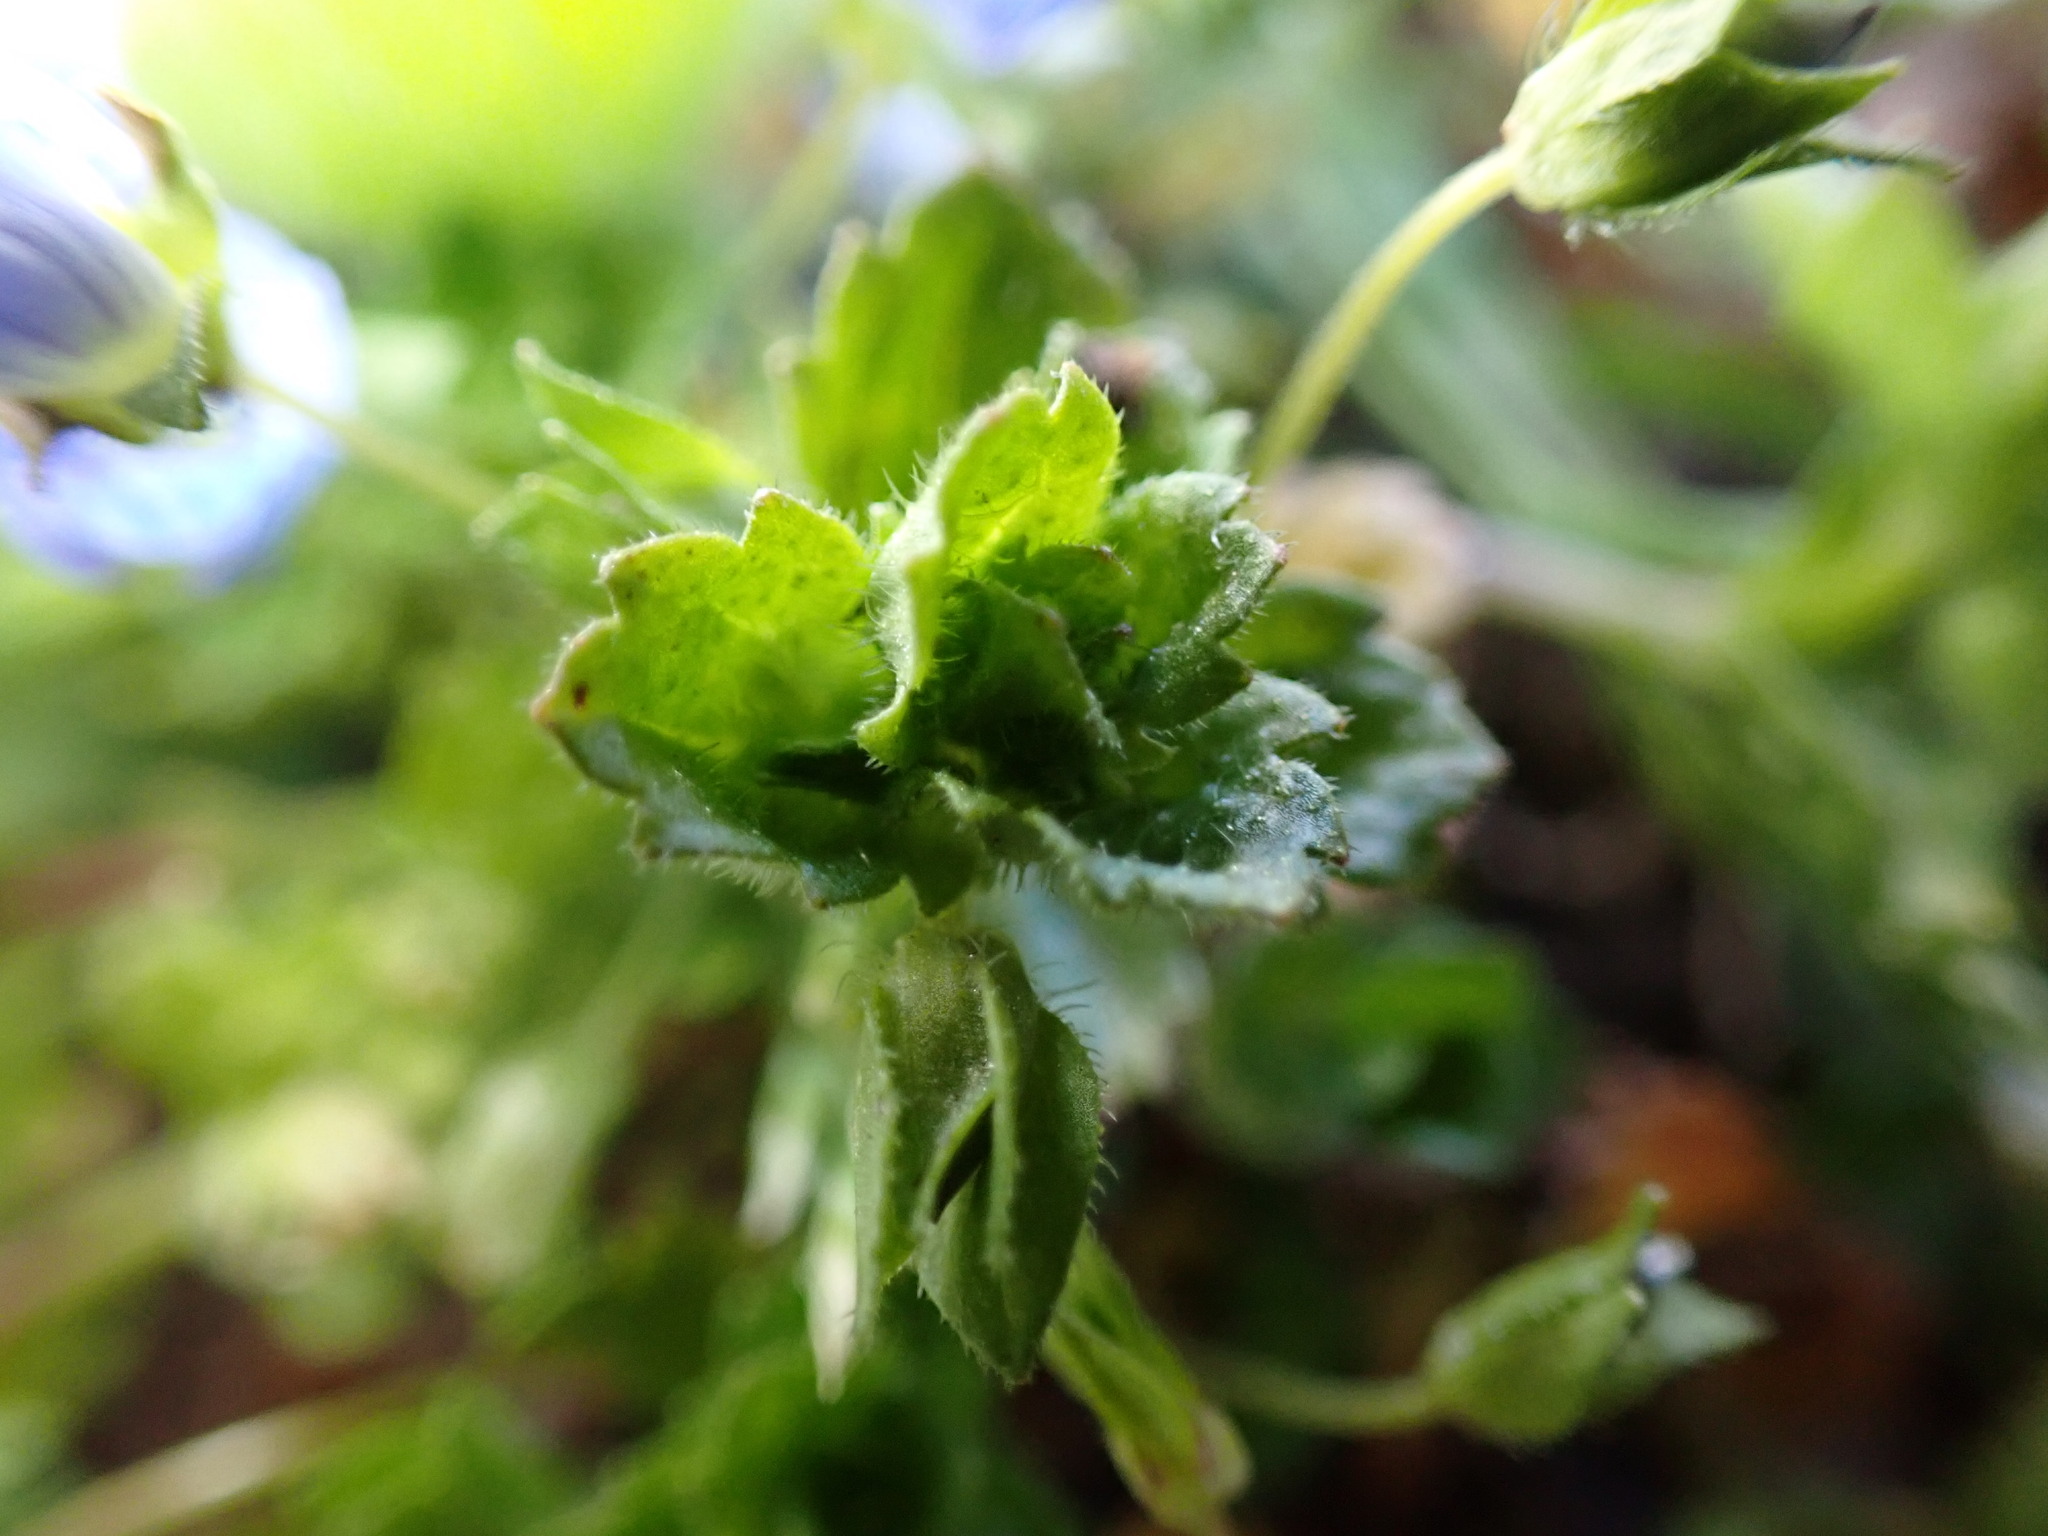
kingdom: Plantae
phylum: Tracheophyta
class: Magnoliopsida
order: Lamiales
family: Plantaginaceae
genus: Veronica
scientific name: Veronica polita
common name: Grey field-speedwell
